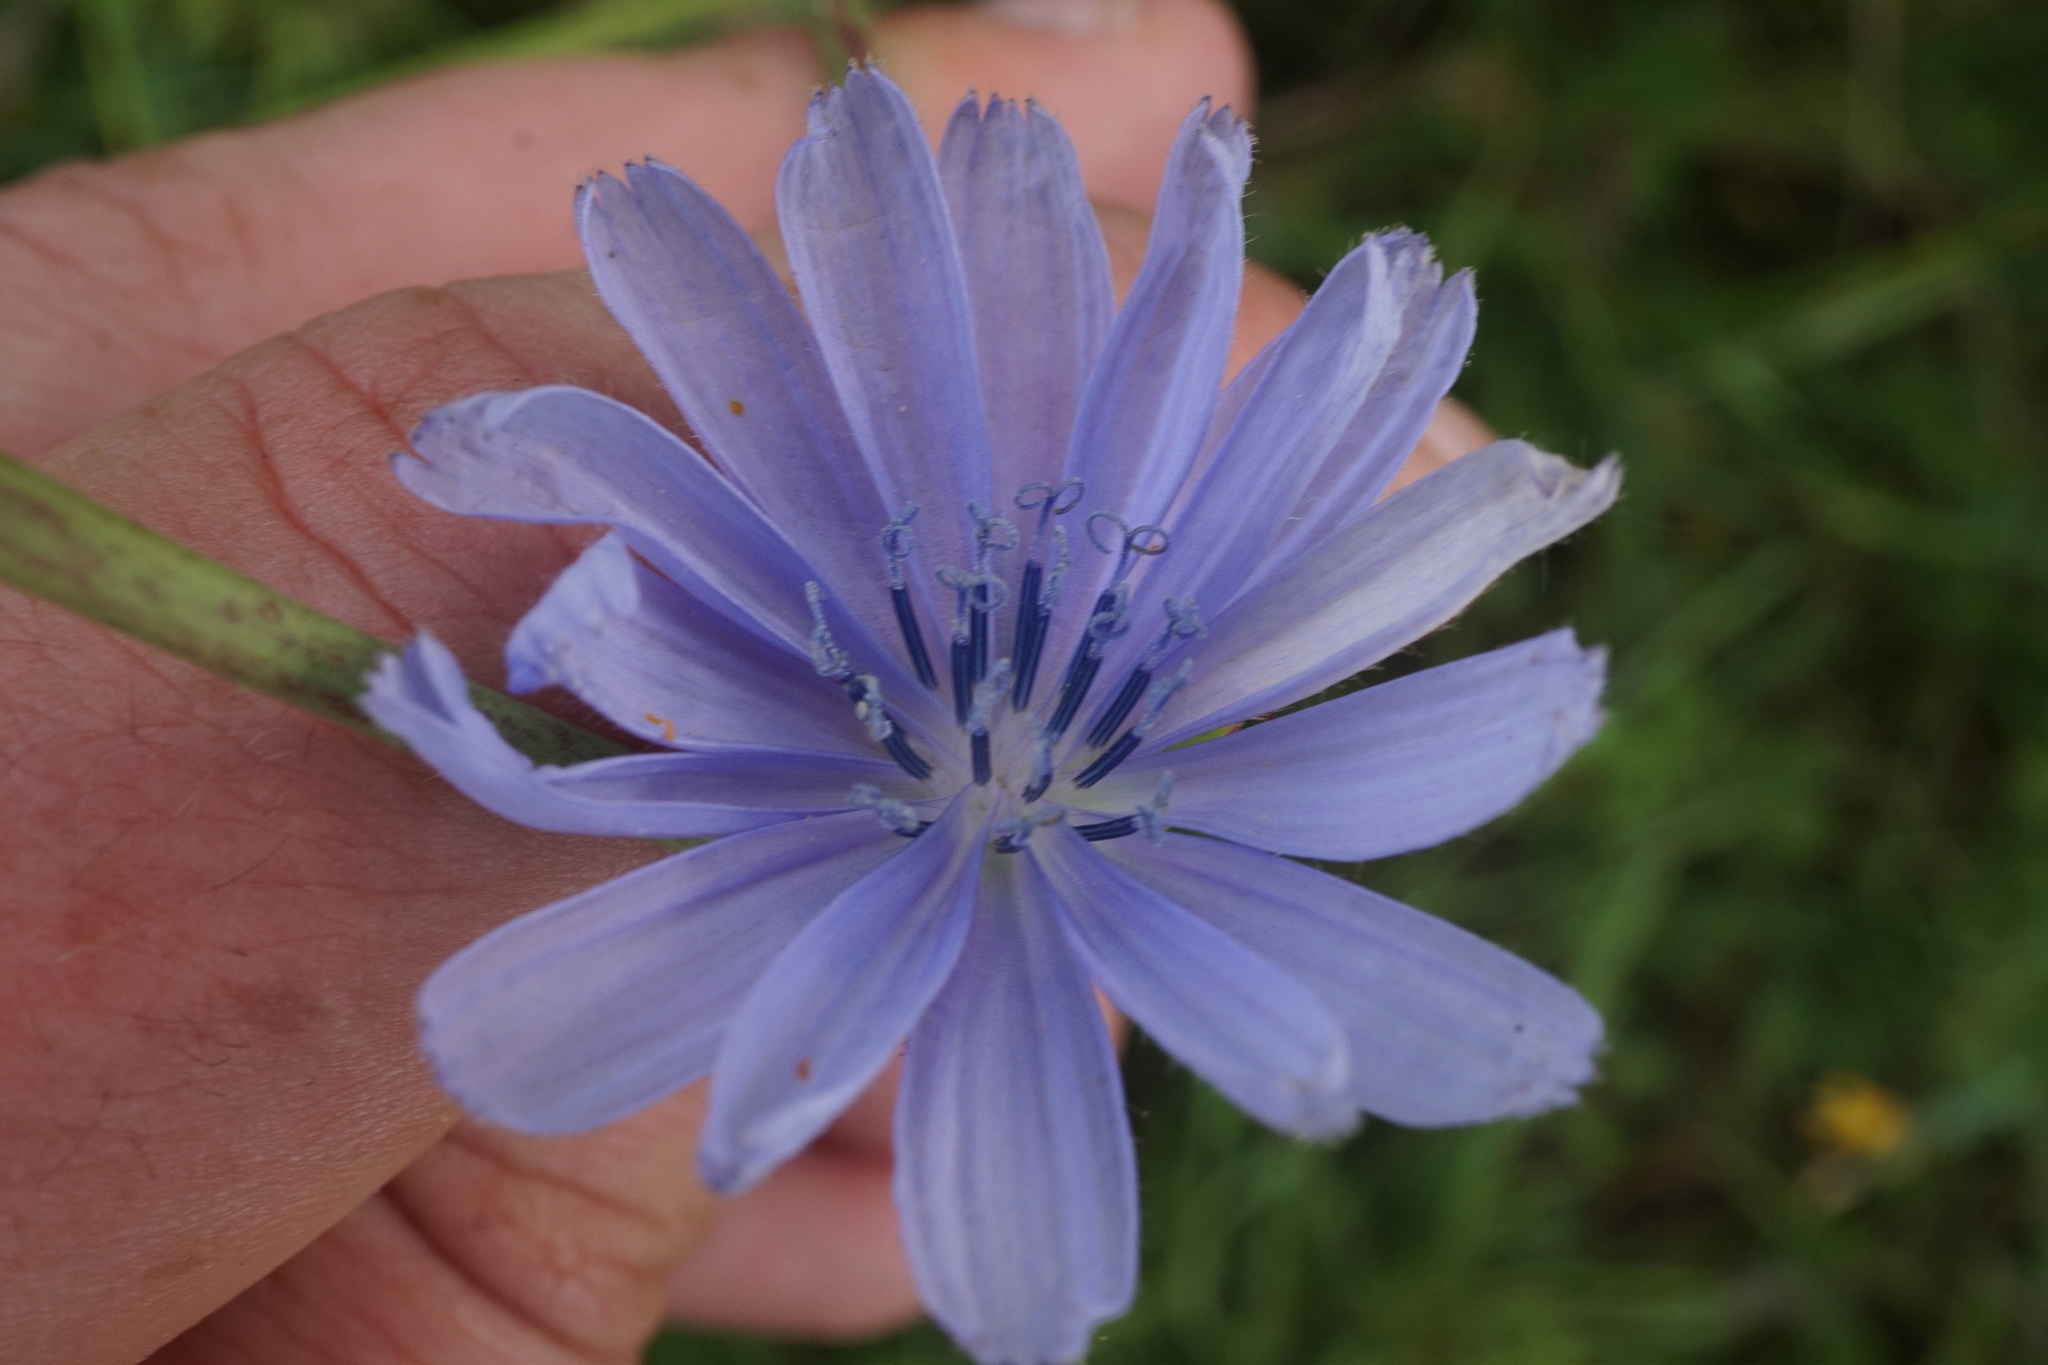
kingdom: Plantae
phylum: Tracheophyta
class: Magnoliopsida
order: Asterales
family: Asteraceae
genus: Cichorium
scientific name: Cichorium intybus
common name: Chicory
